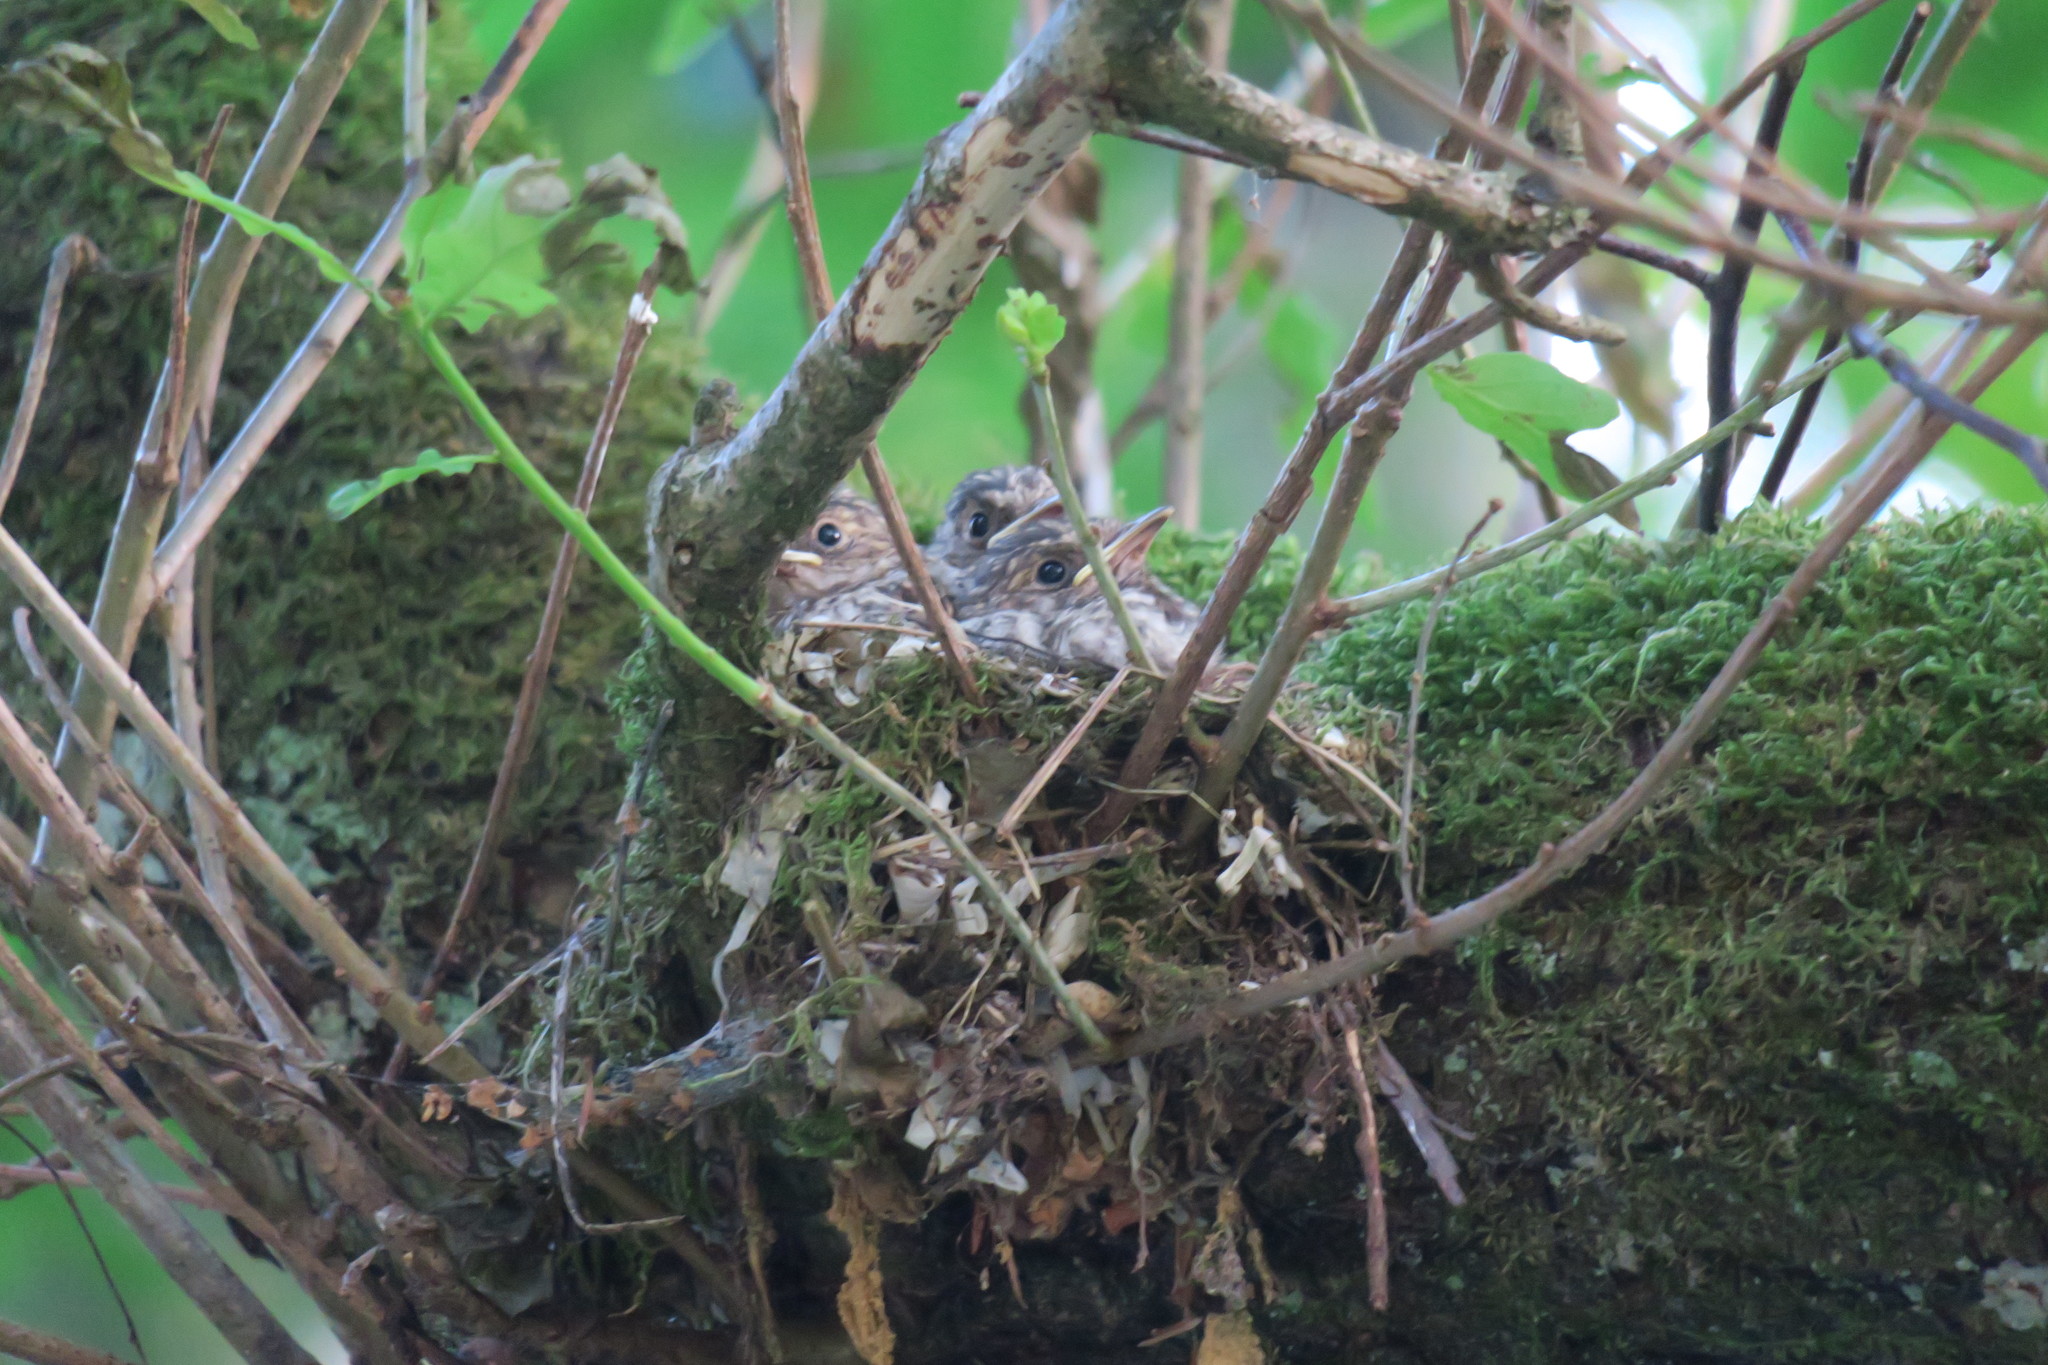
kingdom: Animalia
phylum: Chordata
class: Aves
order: Passeriformes
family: Muscicapidae
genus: Muscicapa
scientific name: Muscicapa striata
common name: Spotted flycatcher
